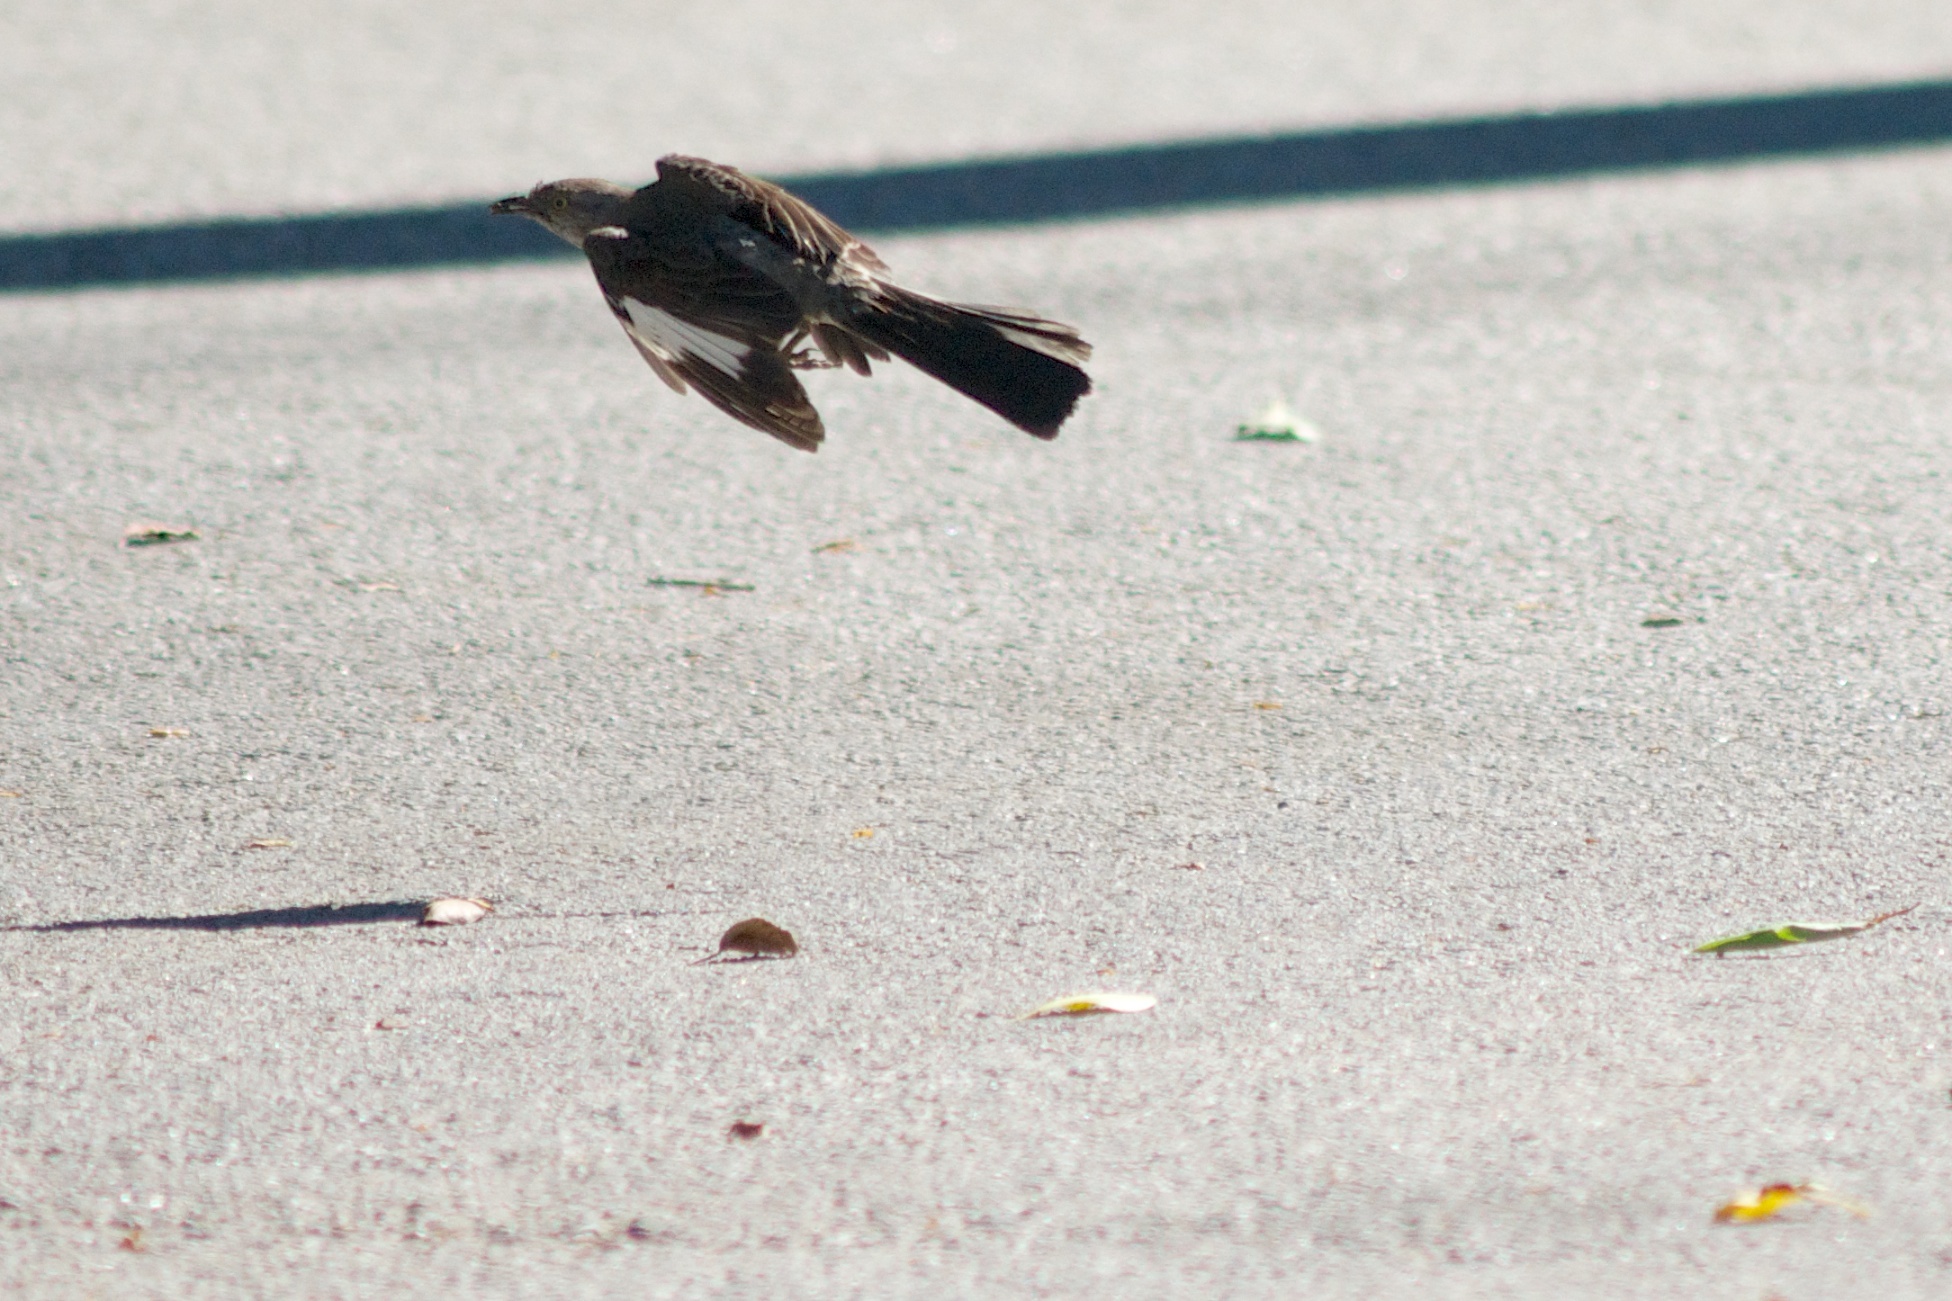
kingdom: Animalia
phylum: Chordata
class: Aves
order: Passeriformes
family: Mimidae
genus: Mimus
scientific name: Mimus polyglottos
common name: Northern mockingbird
